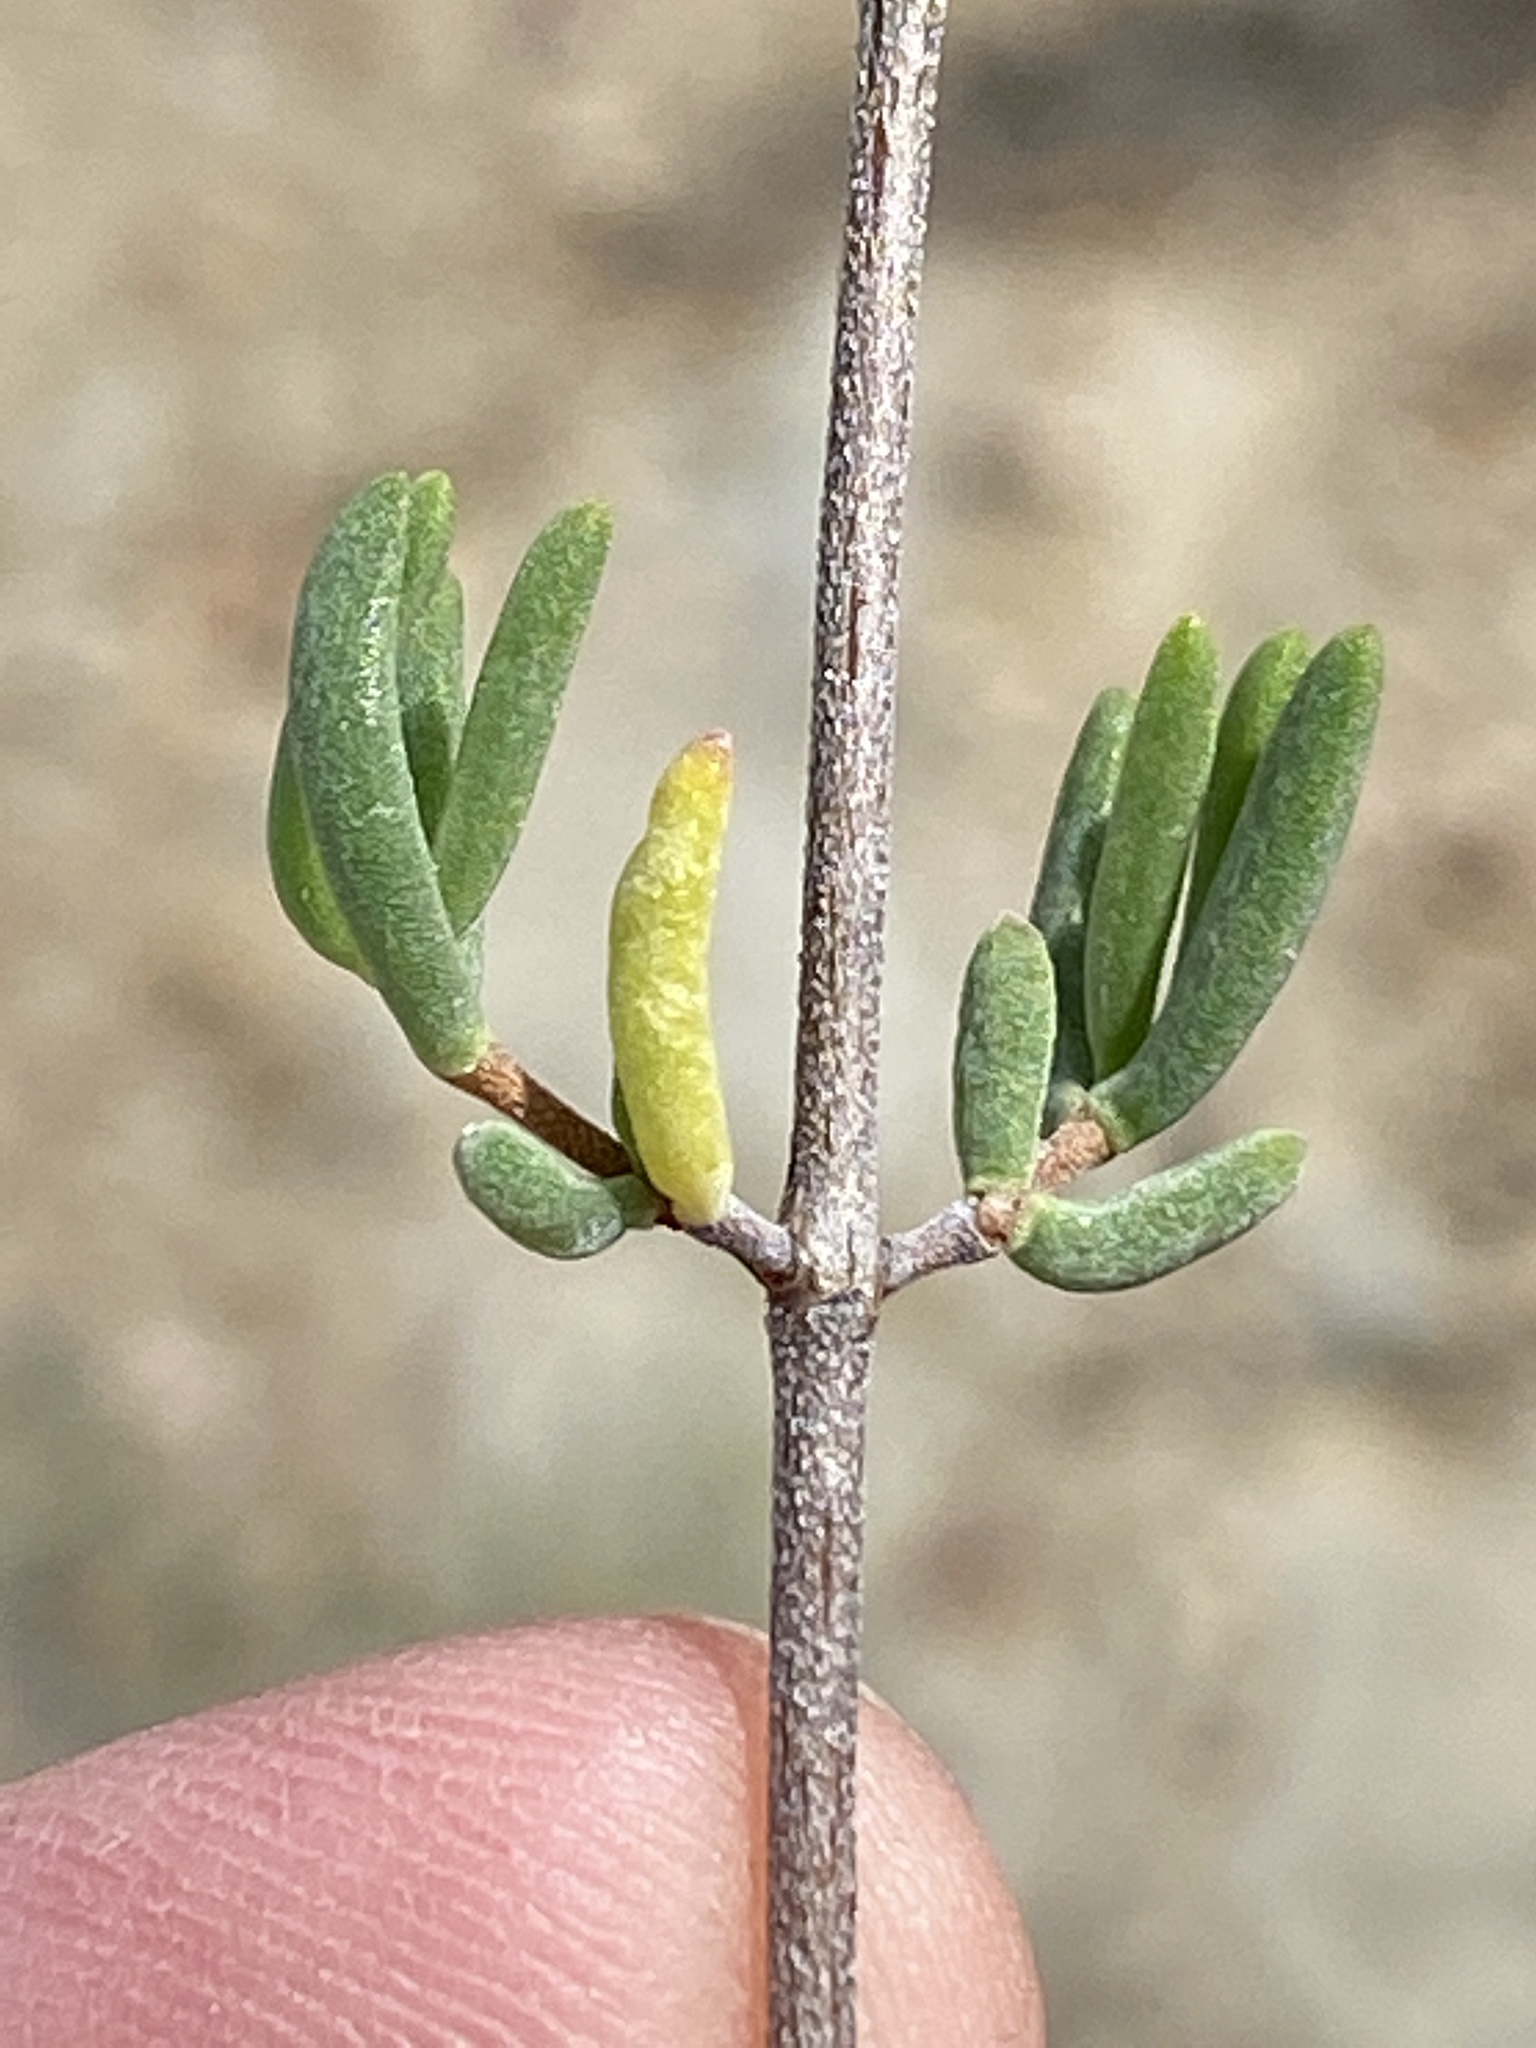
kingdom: Plantae
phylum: Tracheophyta
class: Magnoliopsida
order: Caryophyllales
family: Aizoaceae
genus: Drosanthemum
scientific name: Drosanthemum bicolor
